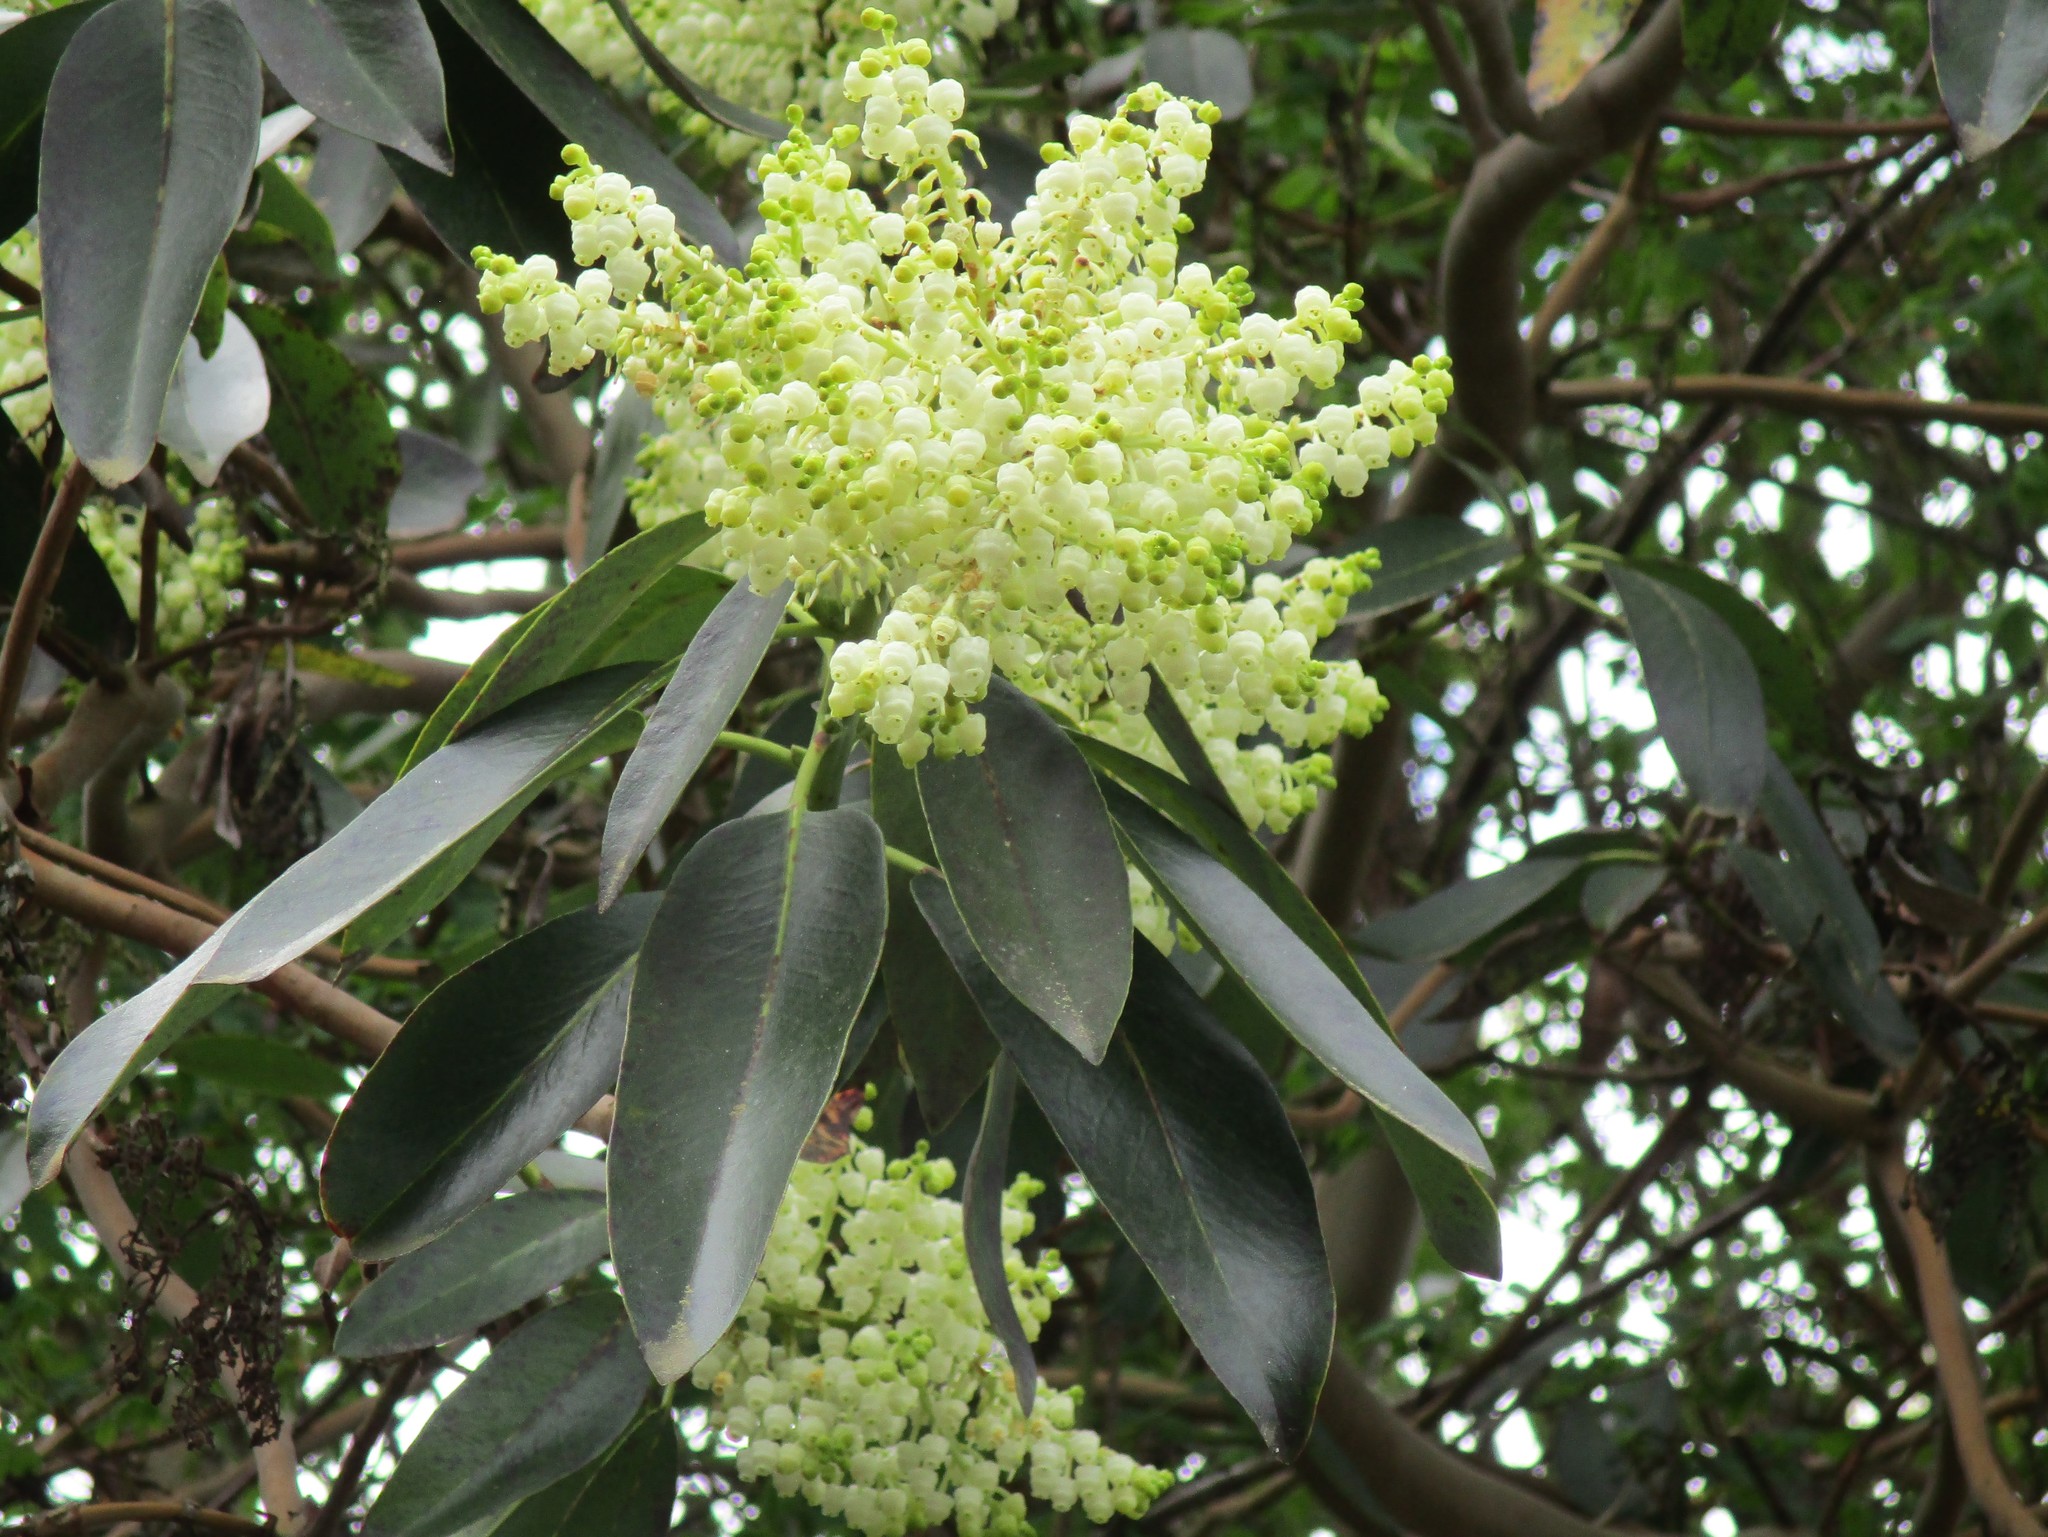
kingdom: Plantae
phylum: Tracheophyta
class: Magnoliopsida
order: Ericales
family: Ericaceae
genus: Arbutus
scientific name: Arbutus menziesii
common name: Pacific madrone
